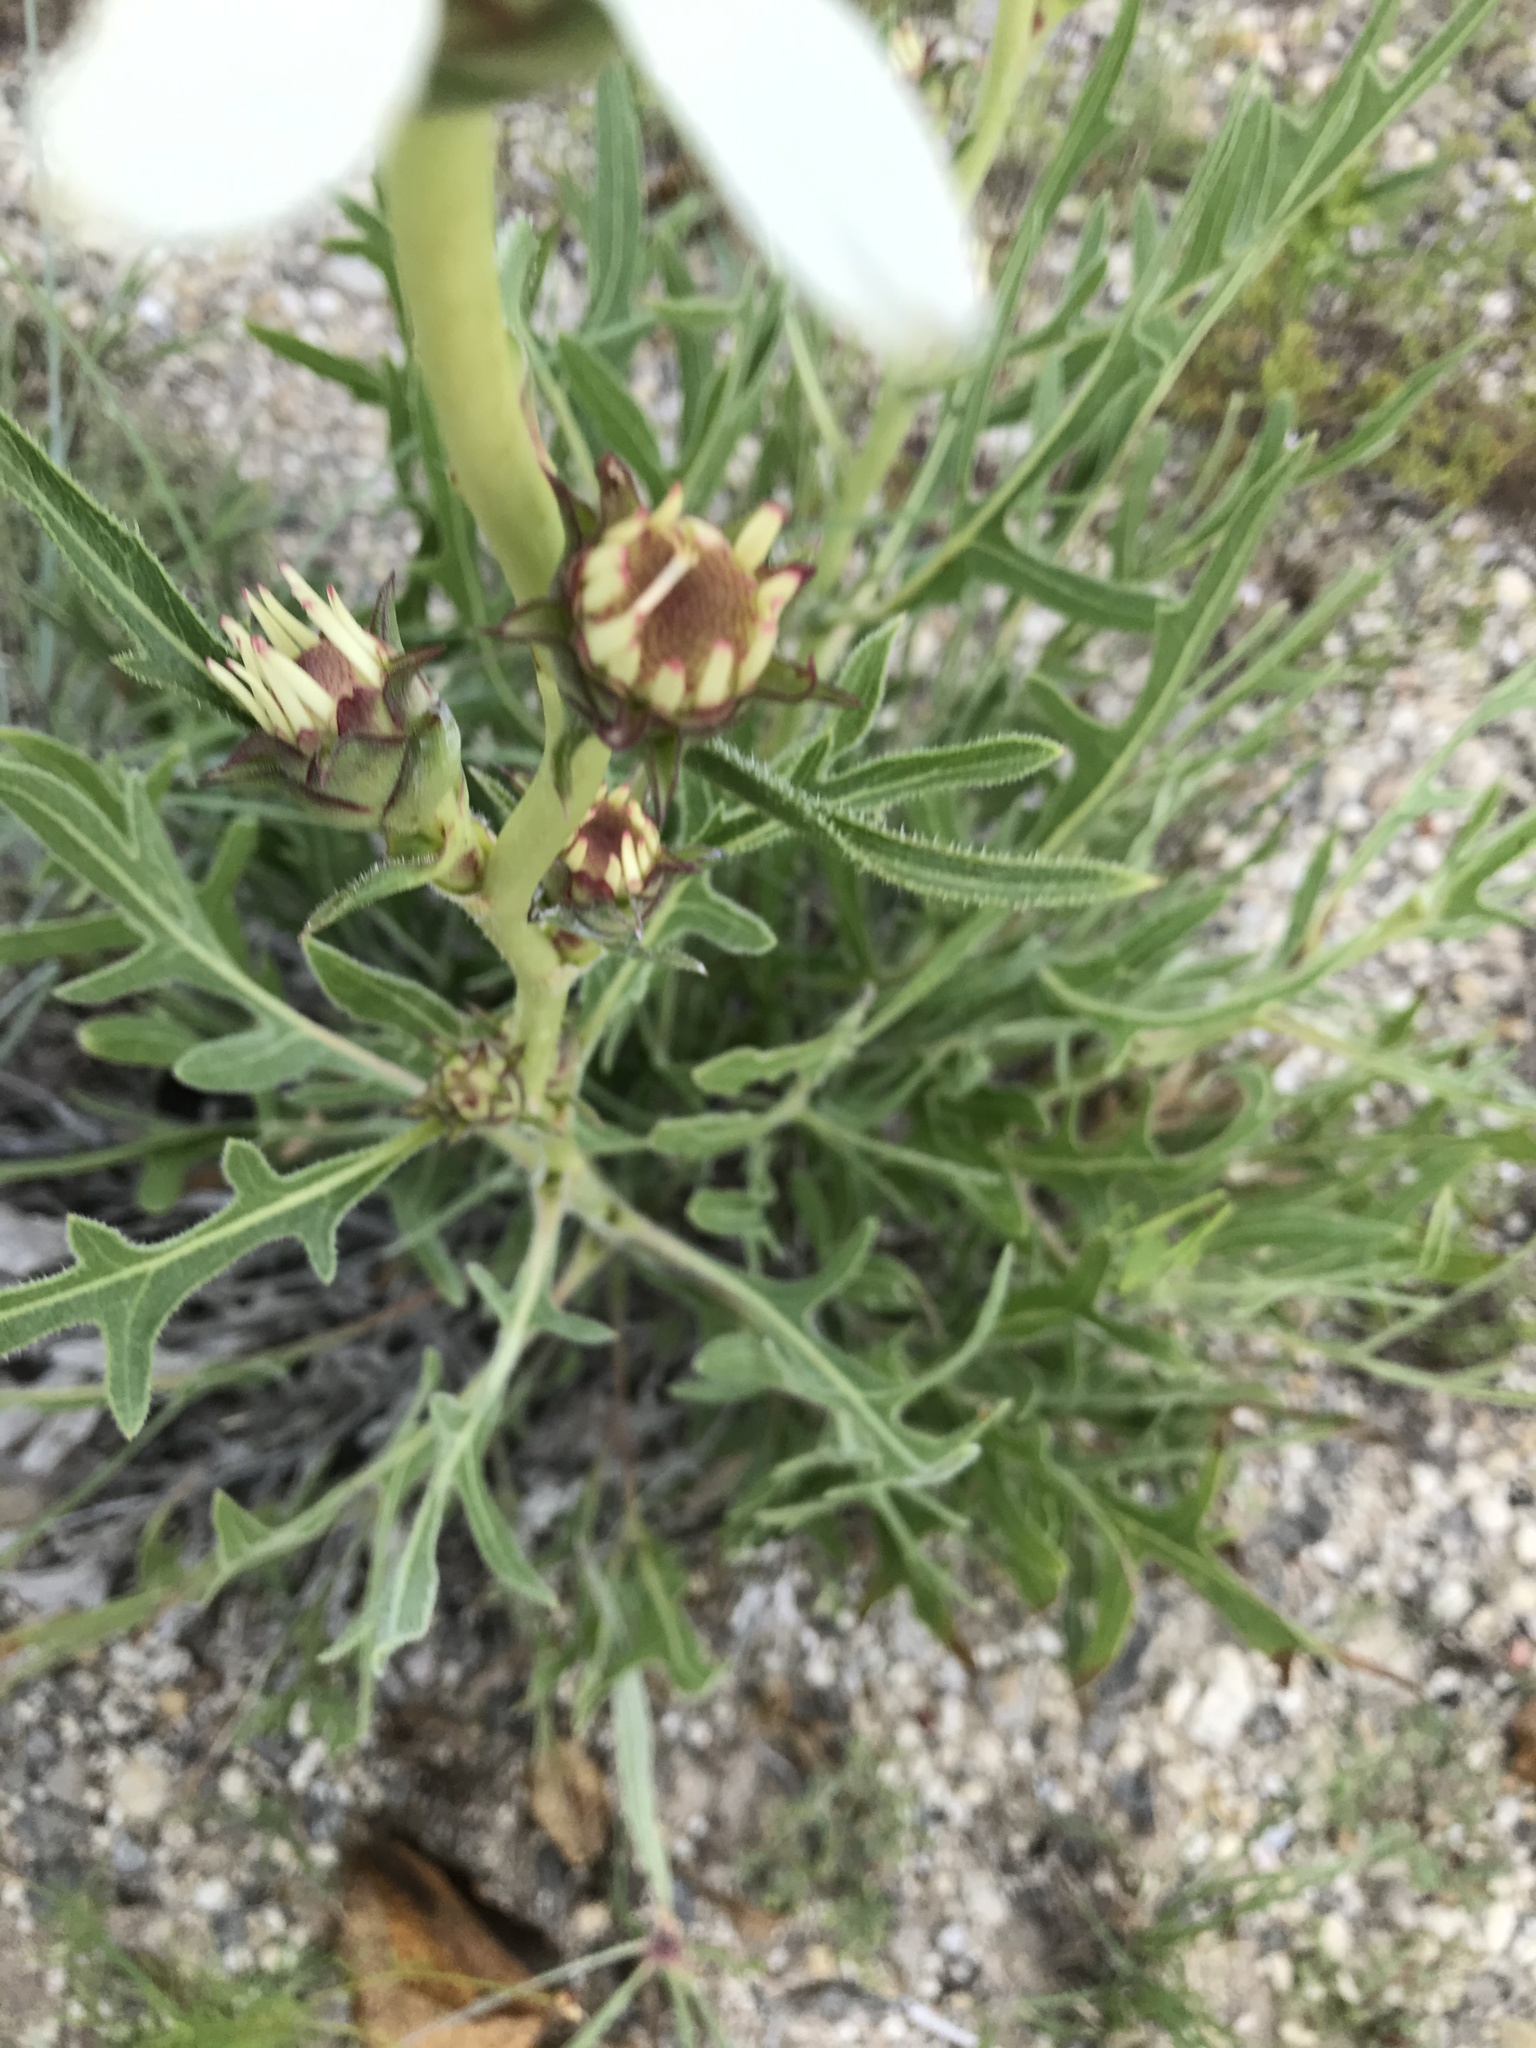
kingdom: Plantae
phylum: Tracheophyta
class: Magnoliopsida
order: Asterales
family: Asteraceae
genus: Silphium
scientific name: Silphium albiflorum
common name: White rosinweed
